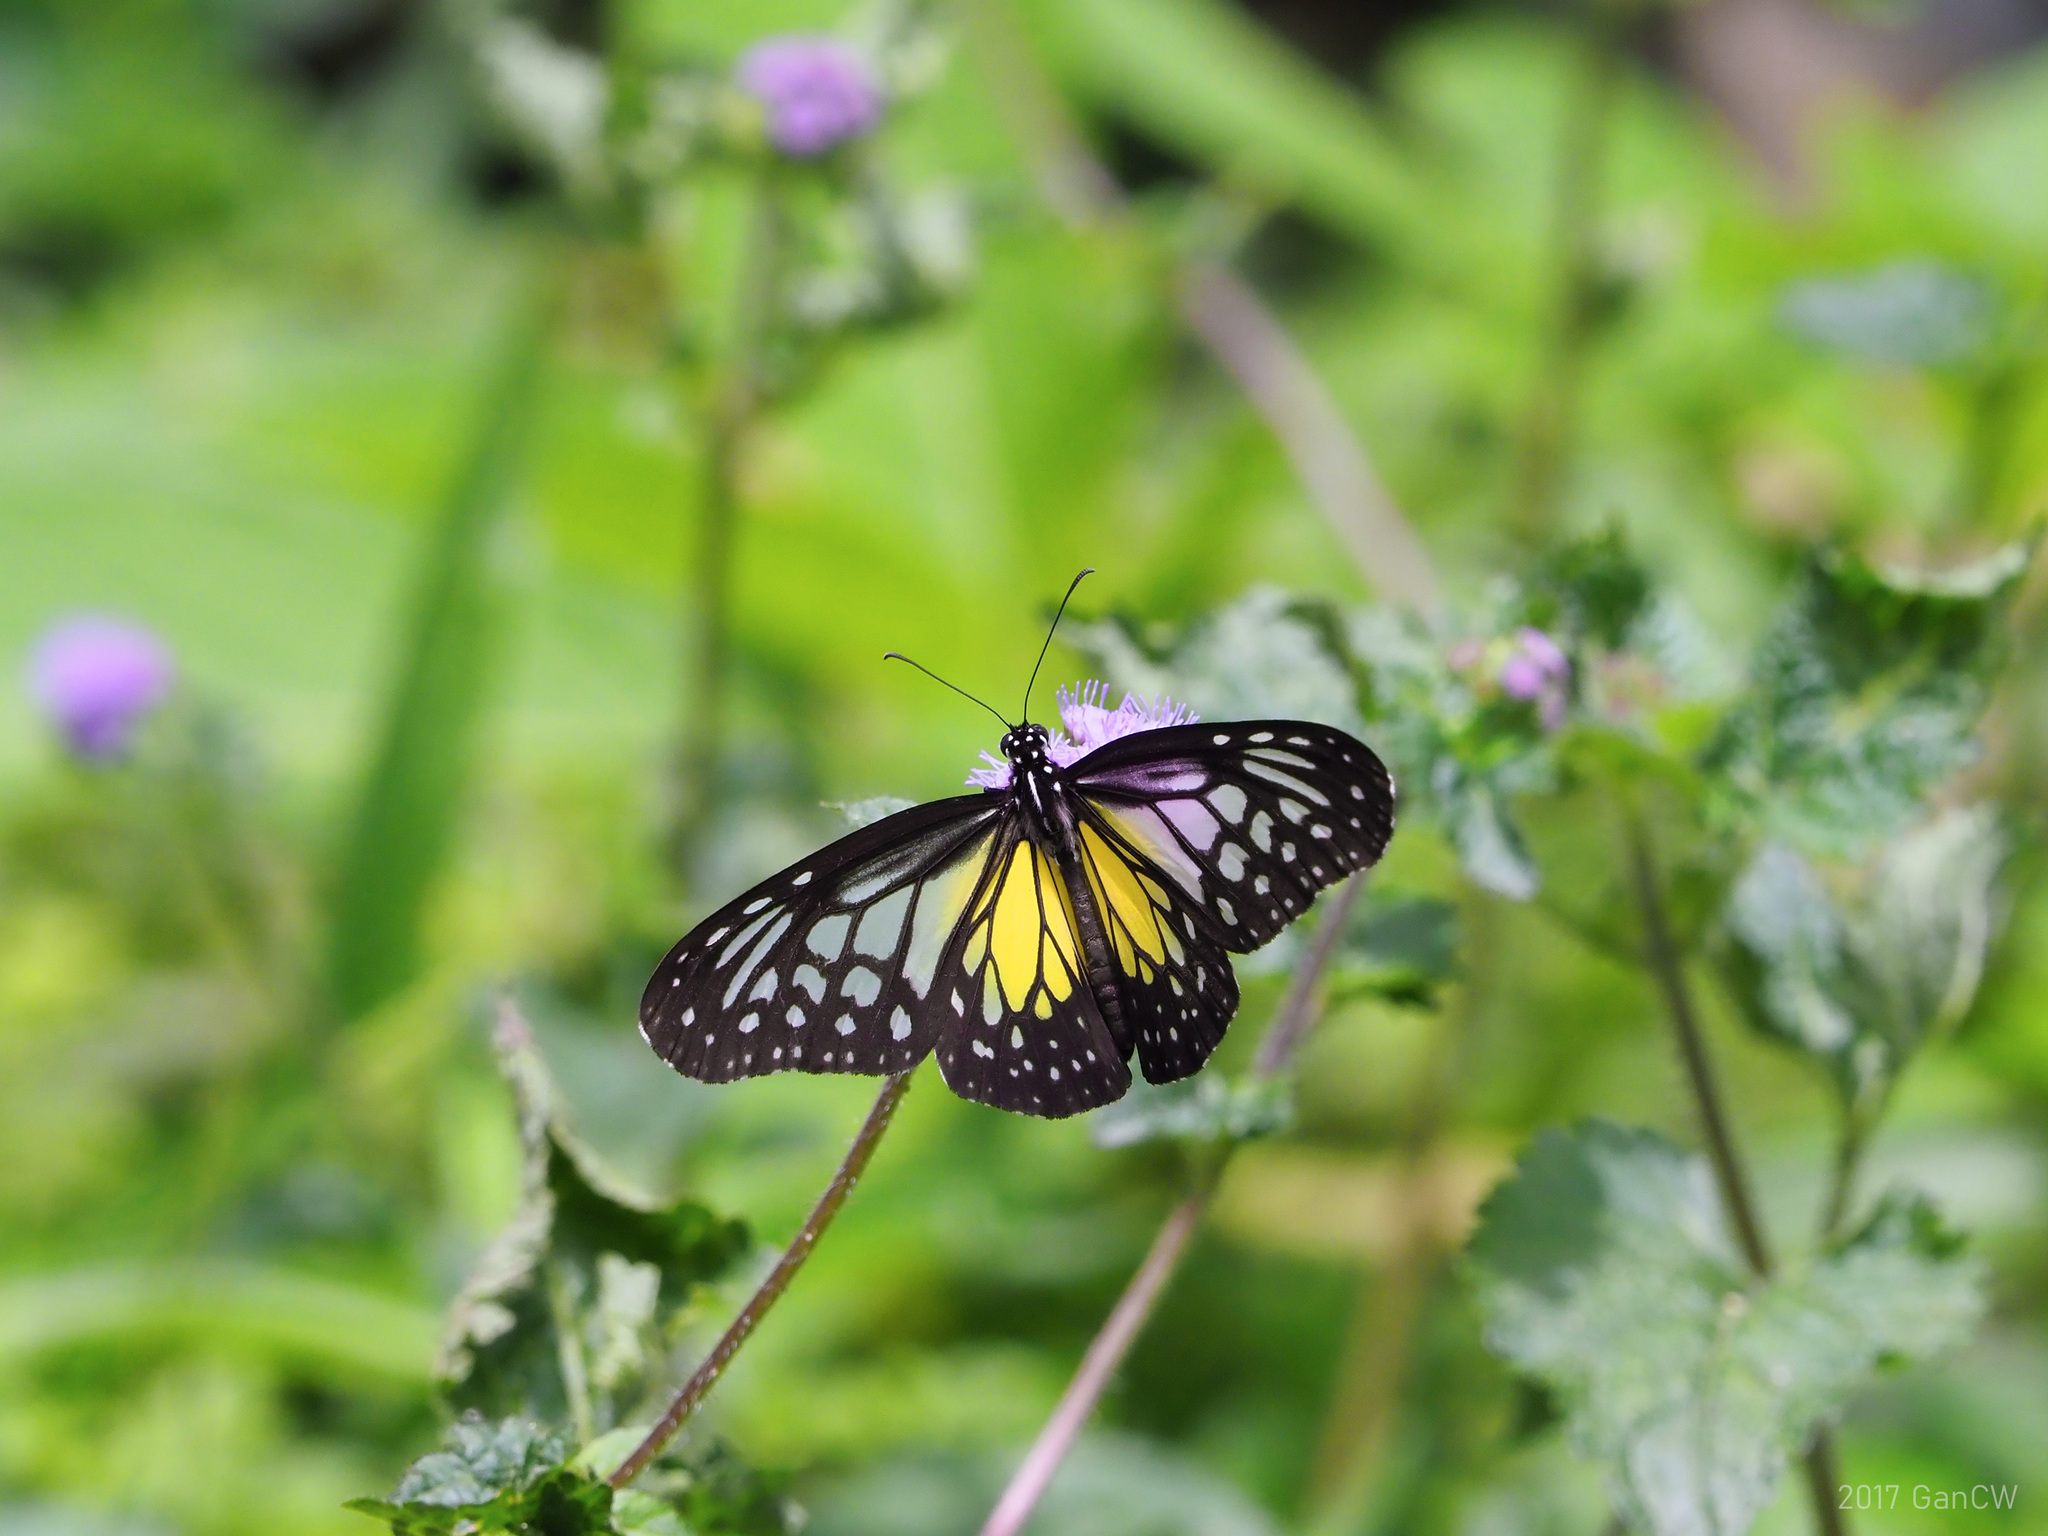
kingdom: Animalia
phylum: Arthropoda
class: Insecta
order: Lepidoptera
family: Nymphalidae
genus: Parantica
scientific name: Parantica aspasia
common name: Yellow glassy tiger
